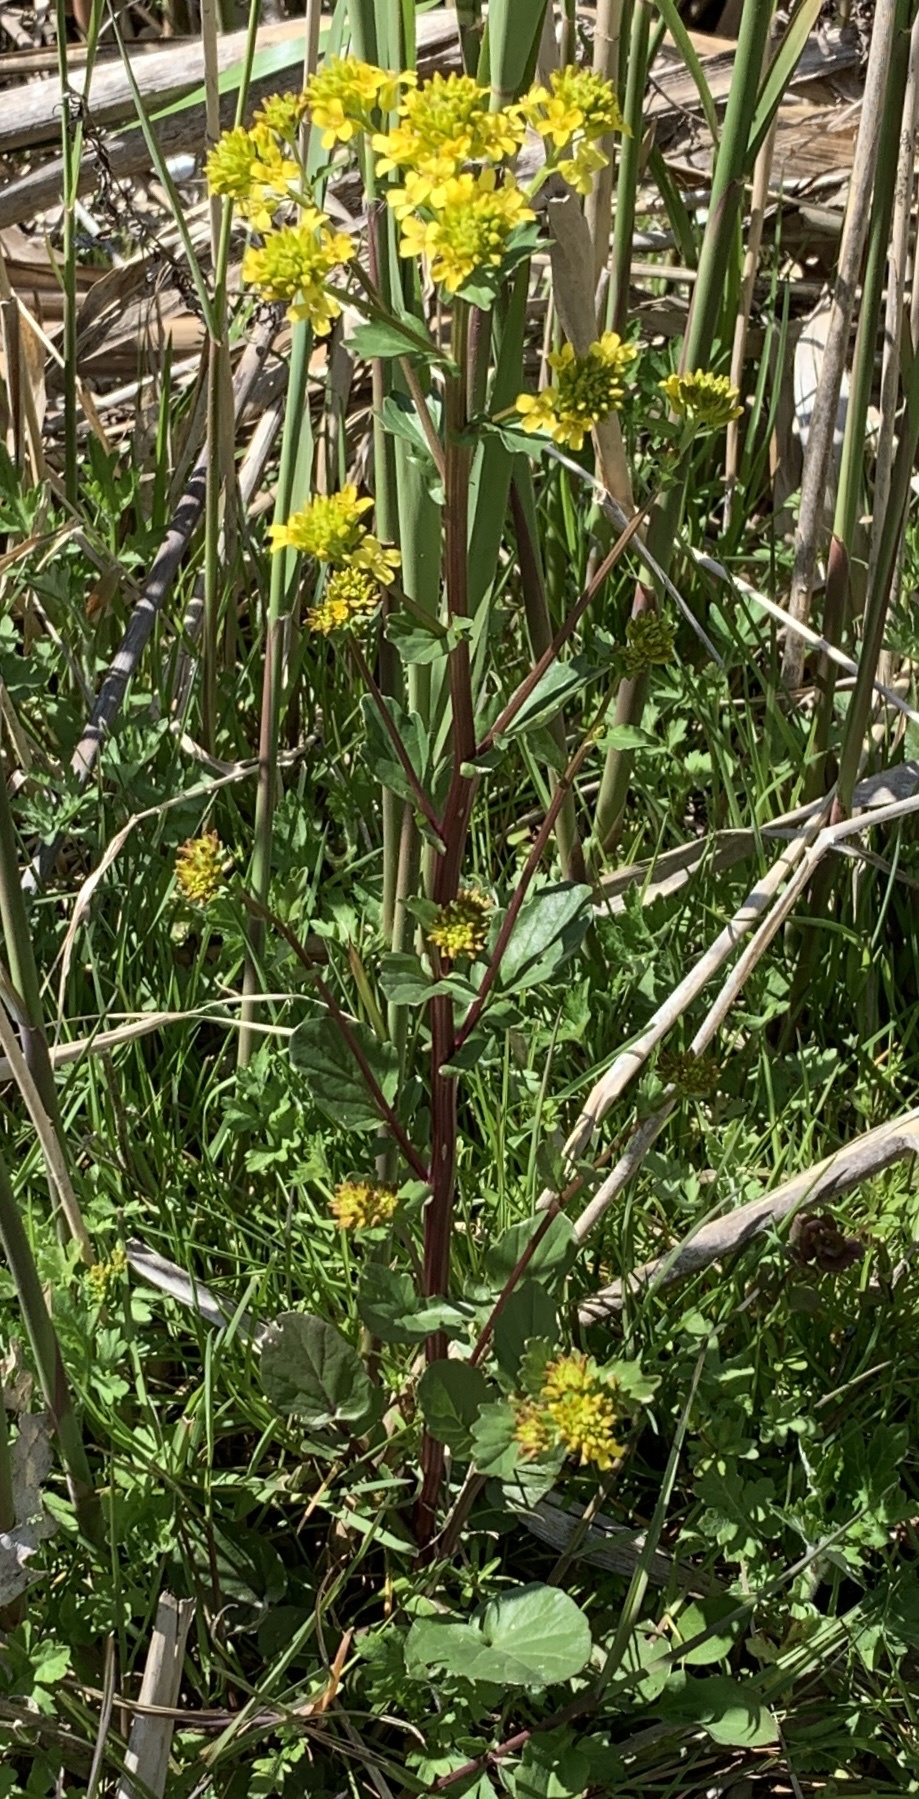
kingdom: Plantae
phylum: Tracheophyta
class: Magnoliopsida
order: Brassicales
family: Brassicaceae
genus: Barbarea
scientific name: Barbarea vulgaris
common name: Cressy-greens
